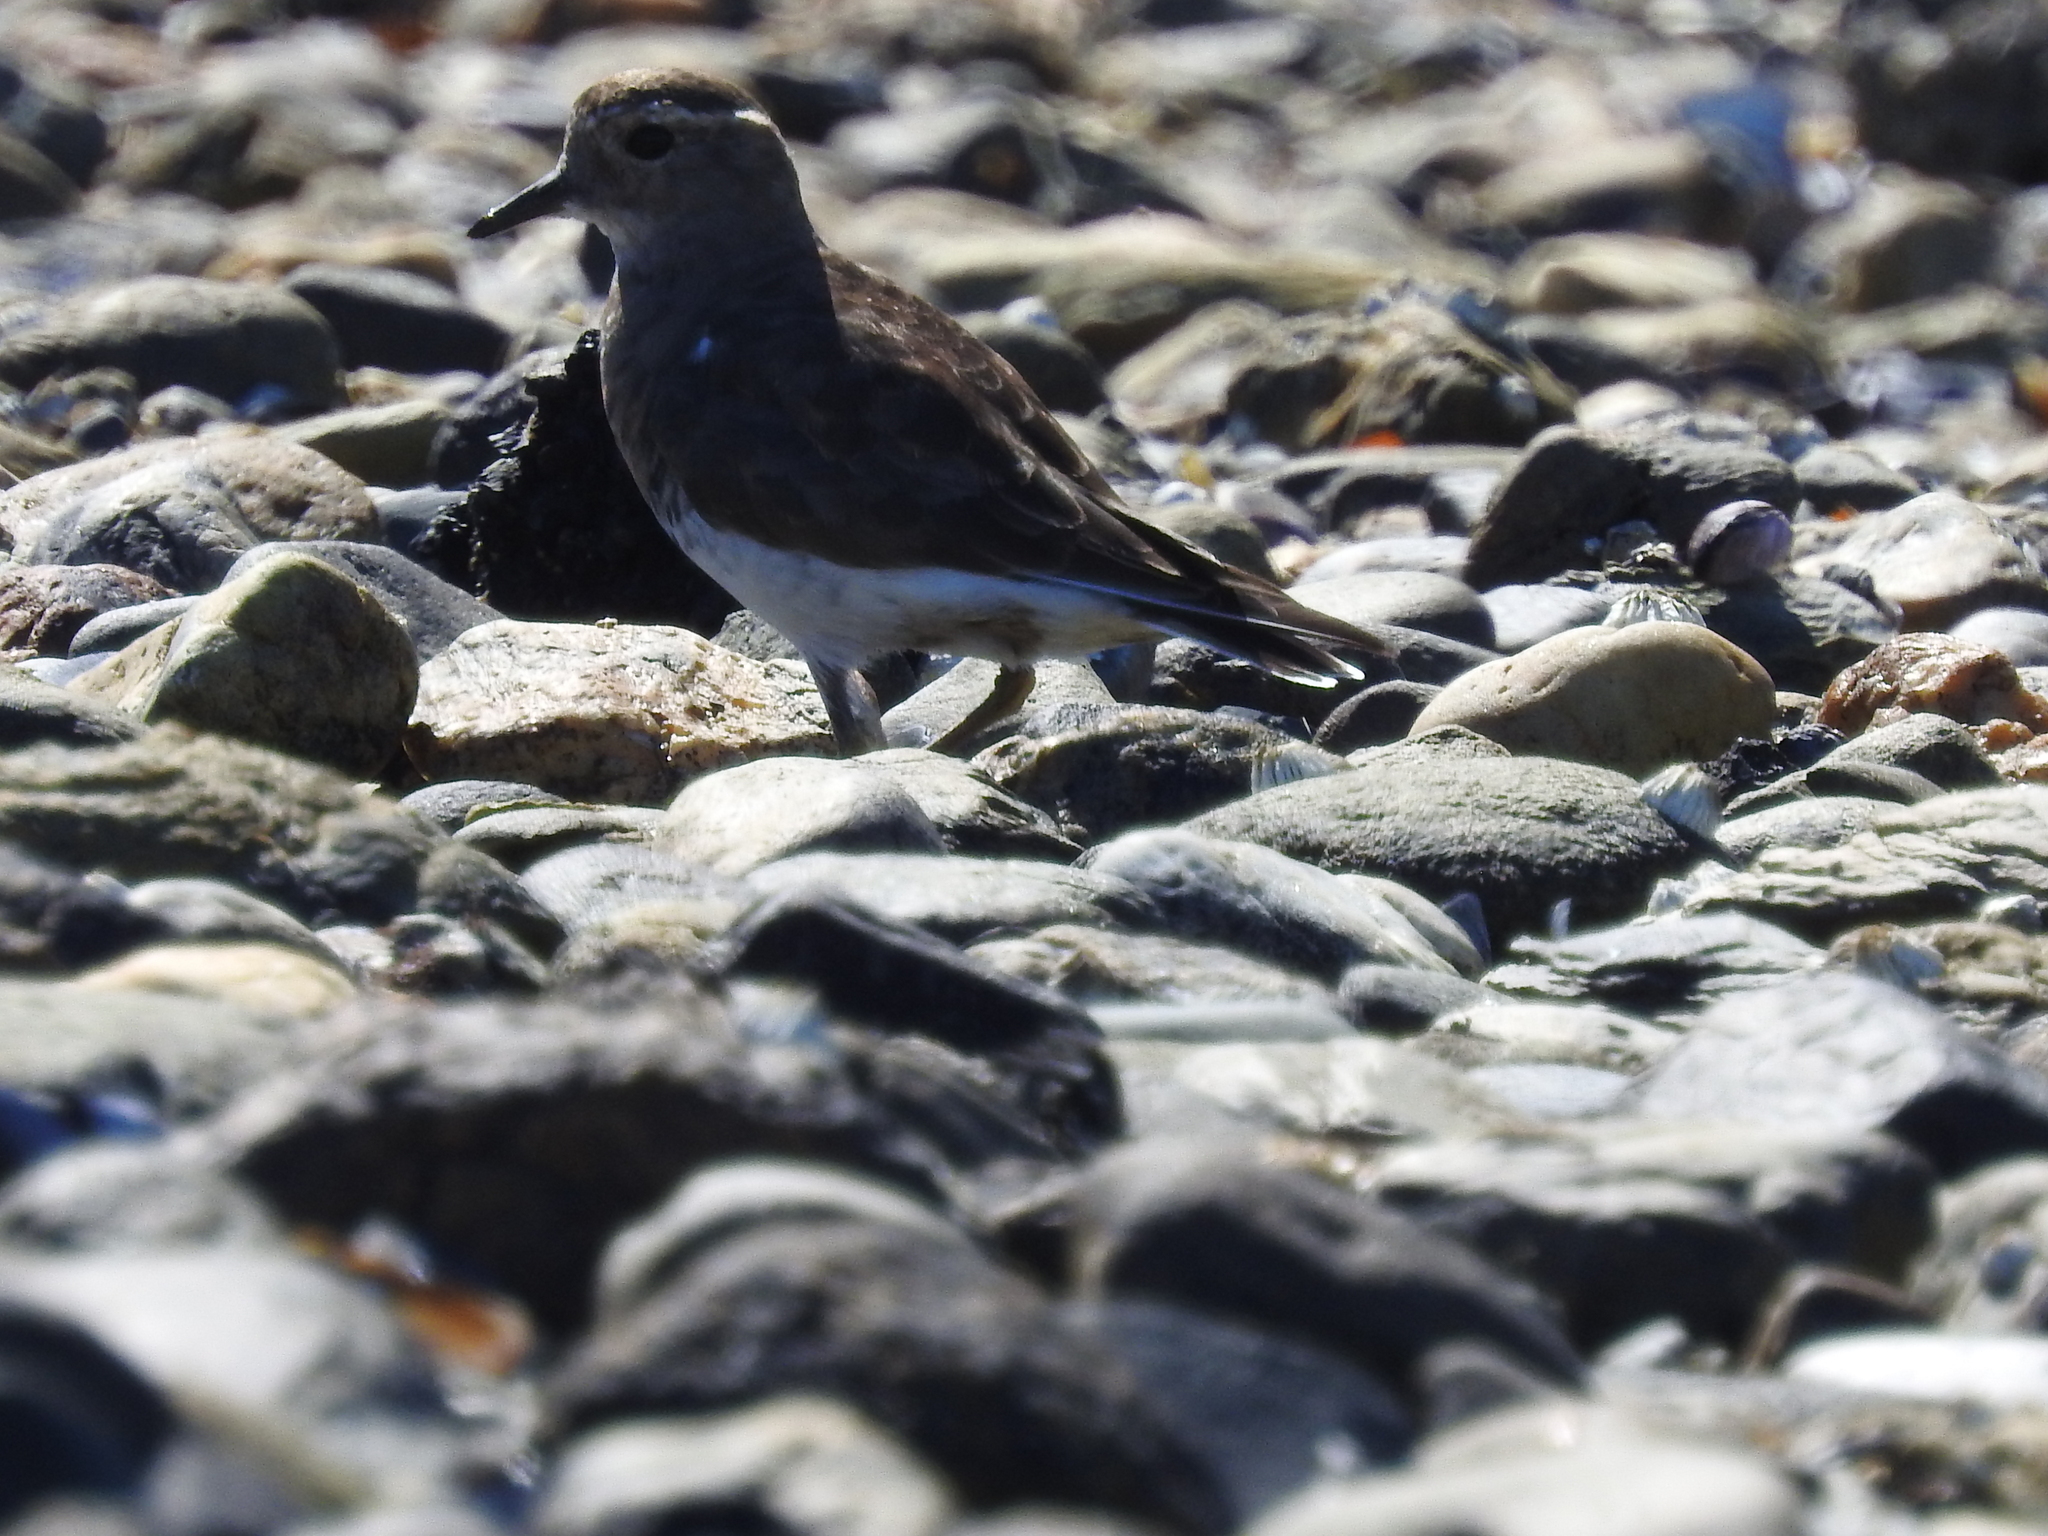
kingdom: Animalia
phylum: Chordata
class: Aves
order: Charadriiformes
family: Charadriidae
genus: Charadrius
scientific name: Charadrius modestus
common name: Rufous-chested plover
